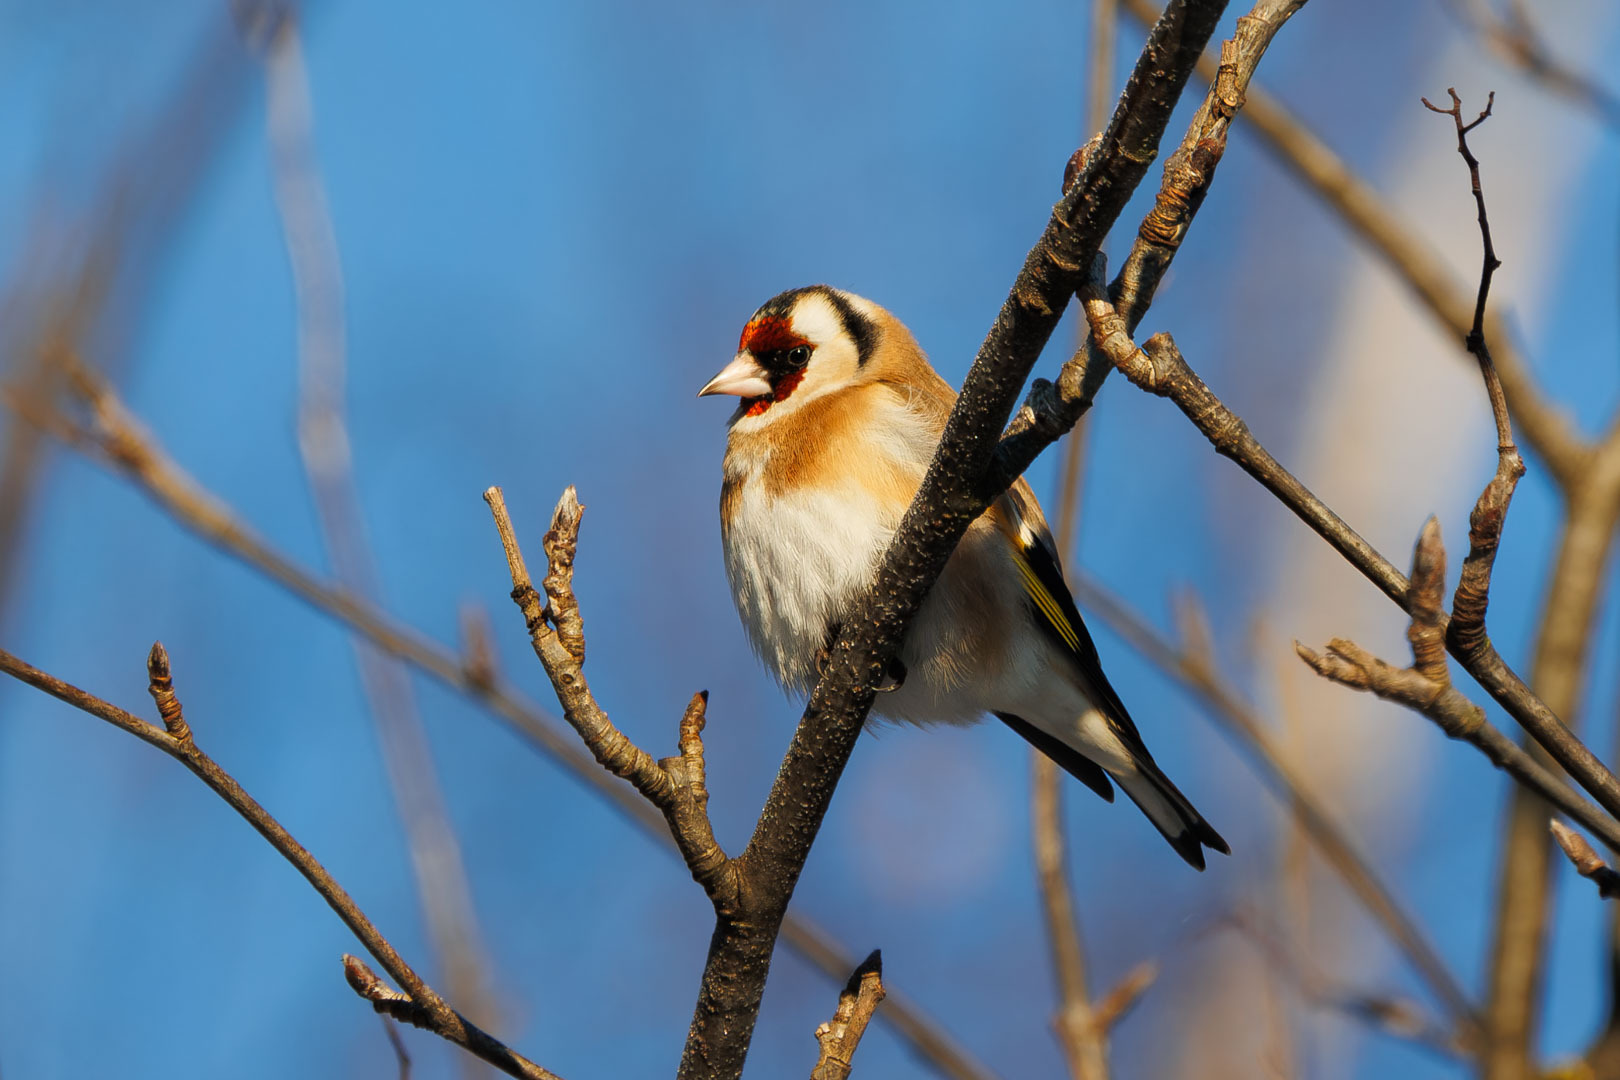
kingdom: Animalia
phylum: Chordata
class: Aves
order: Passeriformes
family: Fringillidae
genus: Carduelis
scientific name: Carduelis carduelis
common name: European goldfinch
